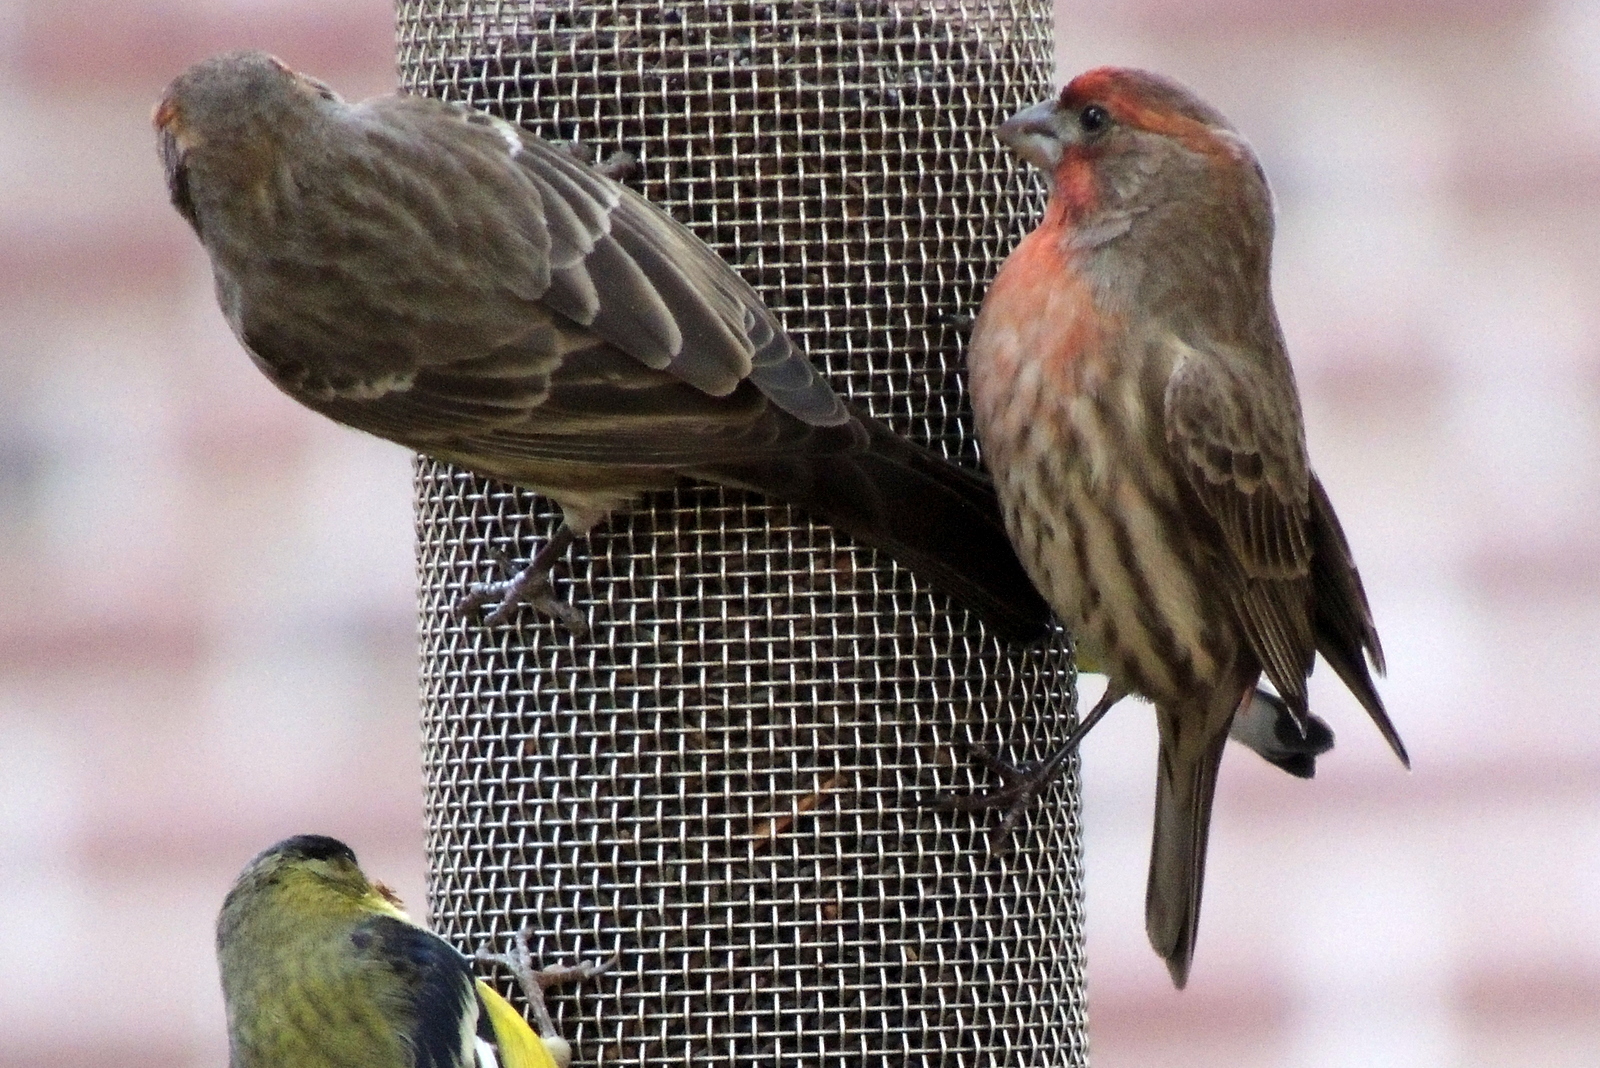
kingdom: Animalia
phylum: Chordata
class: Aves
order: Passeriformes
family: Fringillidae
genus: Haemorhous
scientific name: Haemorhous mexicanus
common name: House finch
